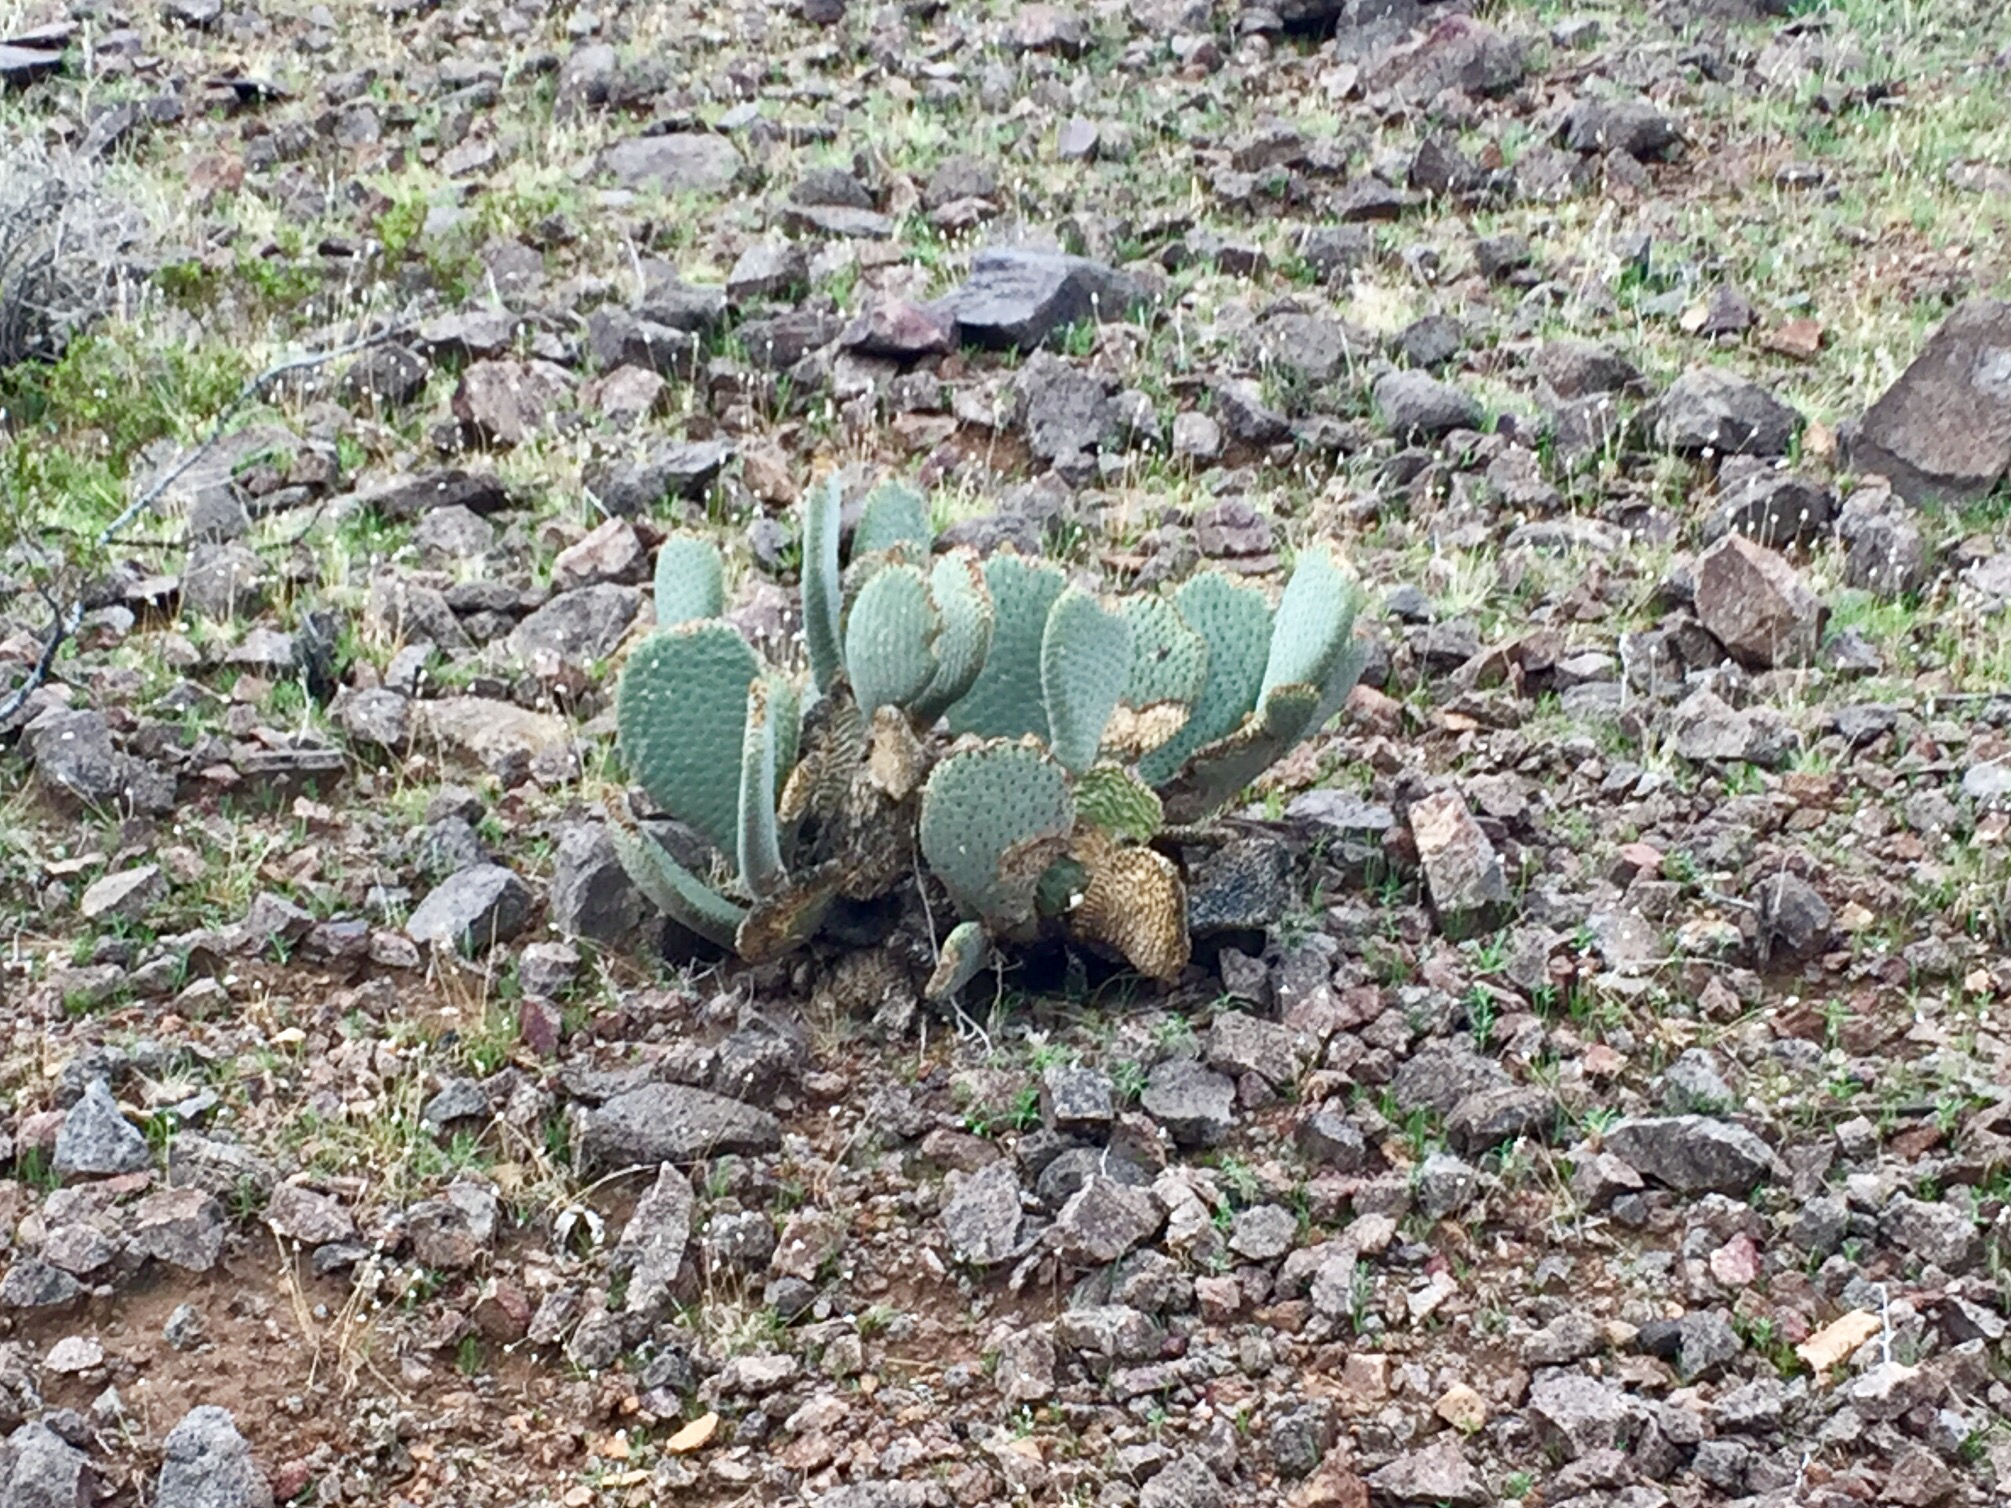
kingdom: Plantae
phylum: Tracheophyta
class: Magnoliopsida
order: Caryophyllales
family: Cactaceae
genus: Opuntia
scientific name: Opuntia basilaris
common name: Beavertail prickly-pear
